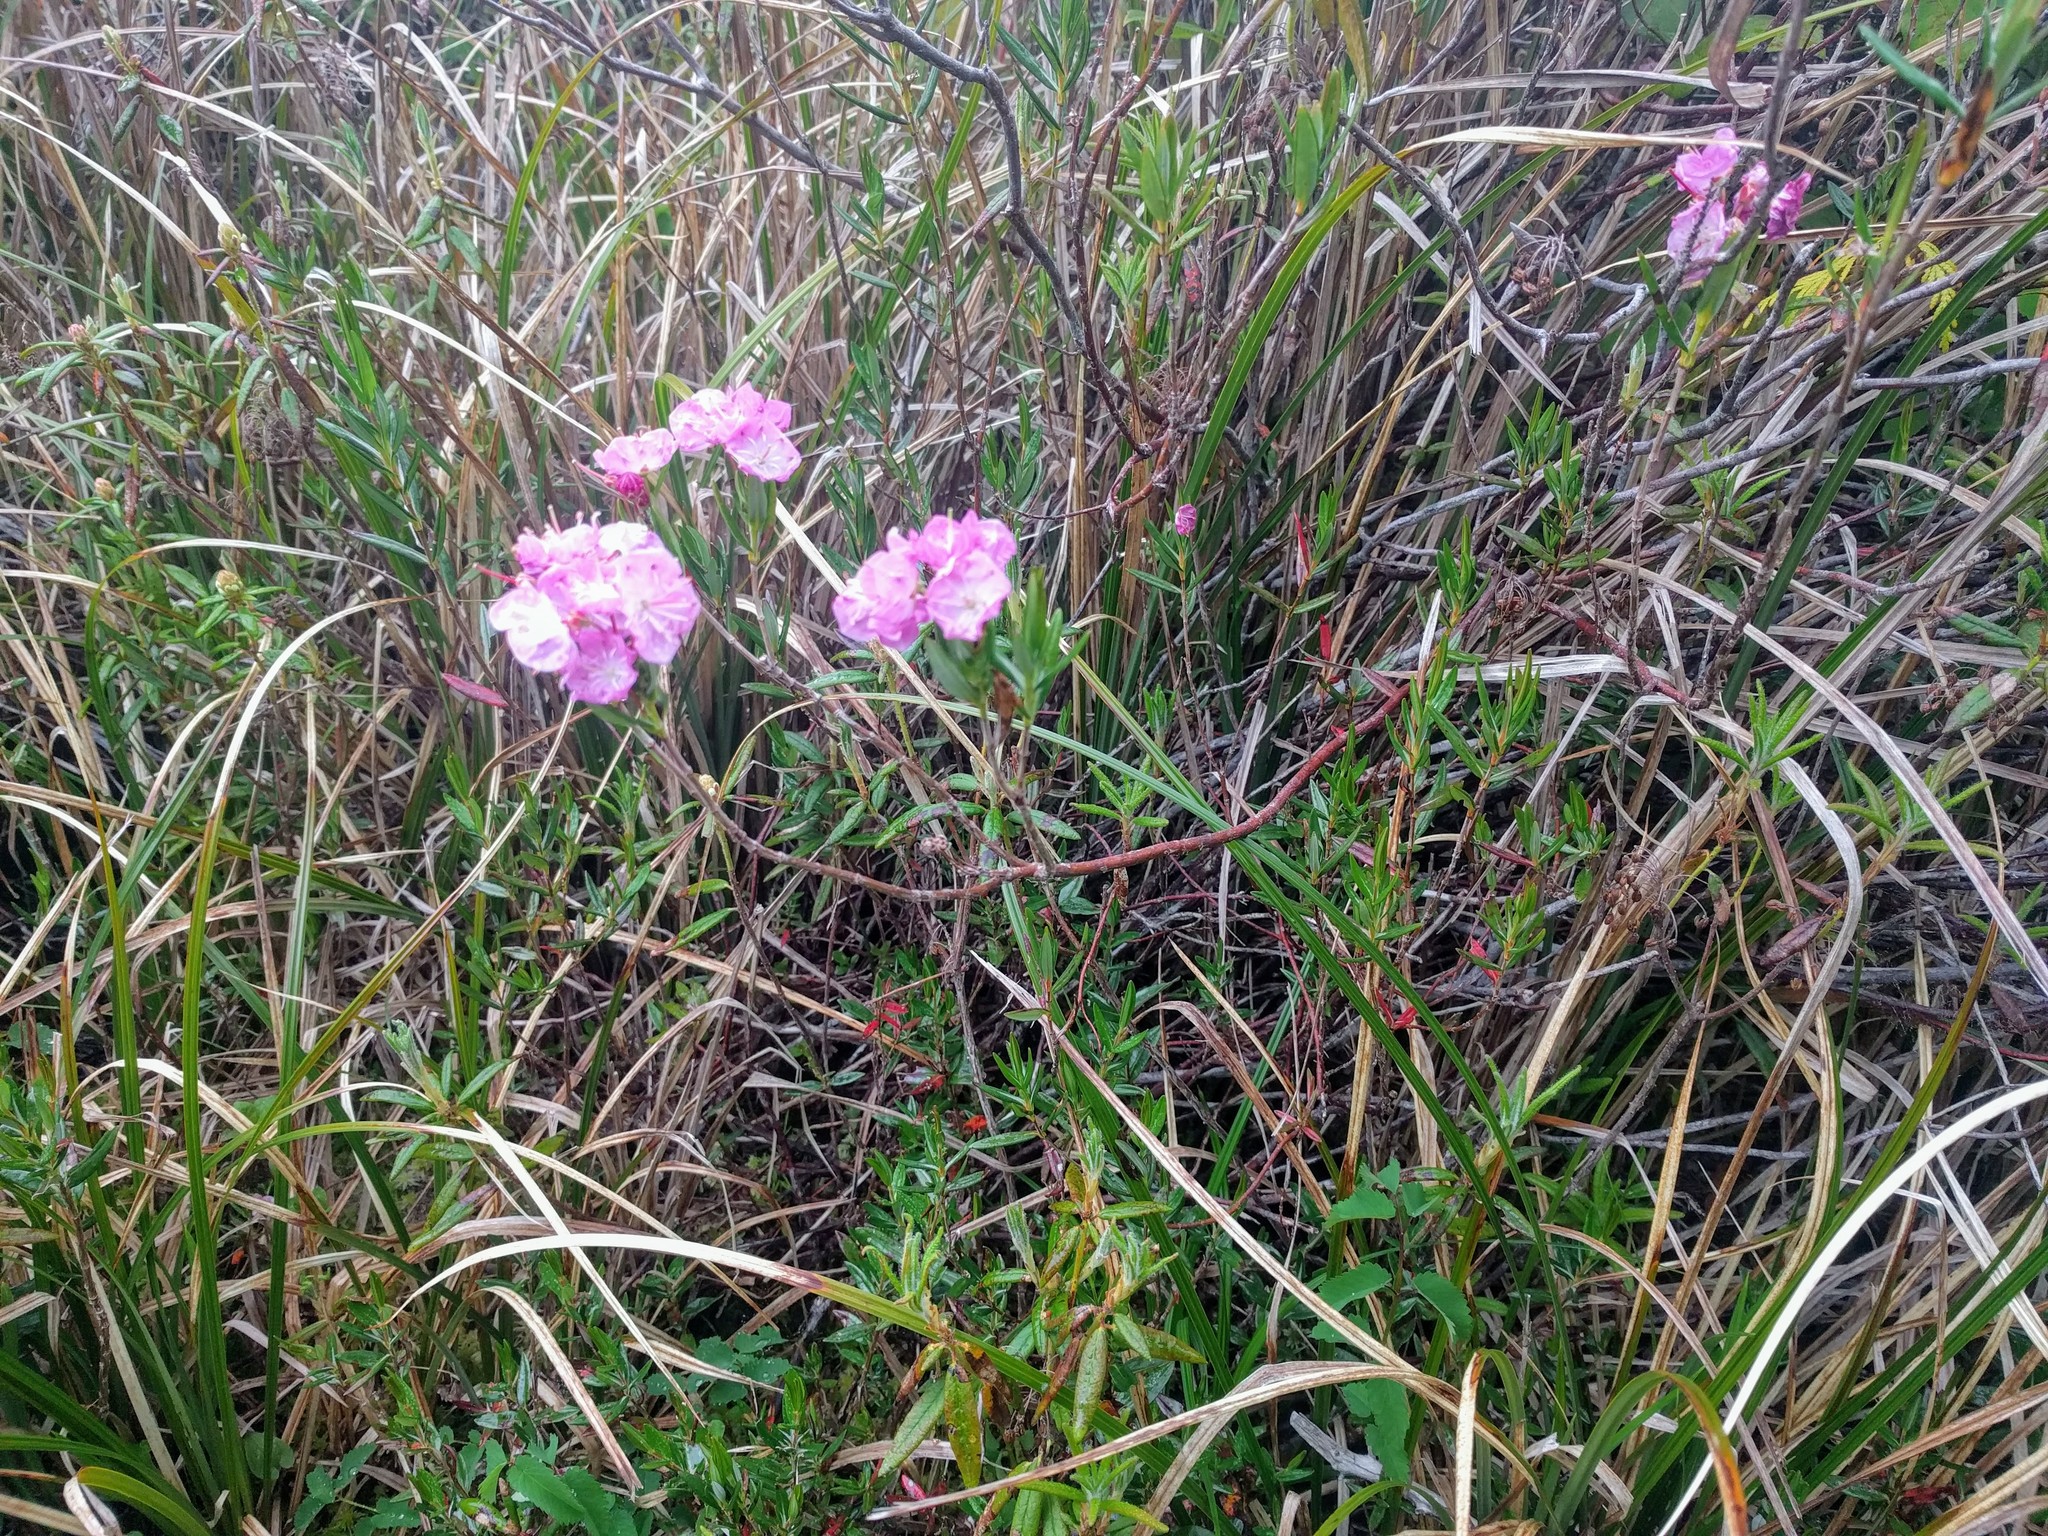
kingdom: Plantae
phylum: Tracheophyta
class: Magnoliopsida
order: Ericales
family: Ericaceae
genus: Kalmia
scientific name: Kalmia microphylla
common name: Alpine bog laurel
